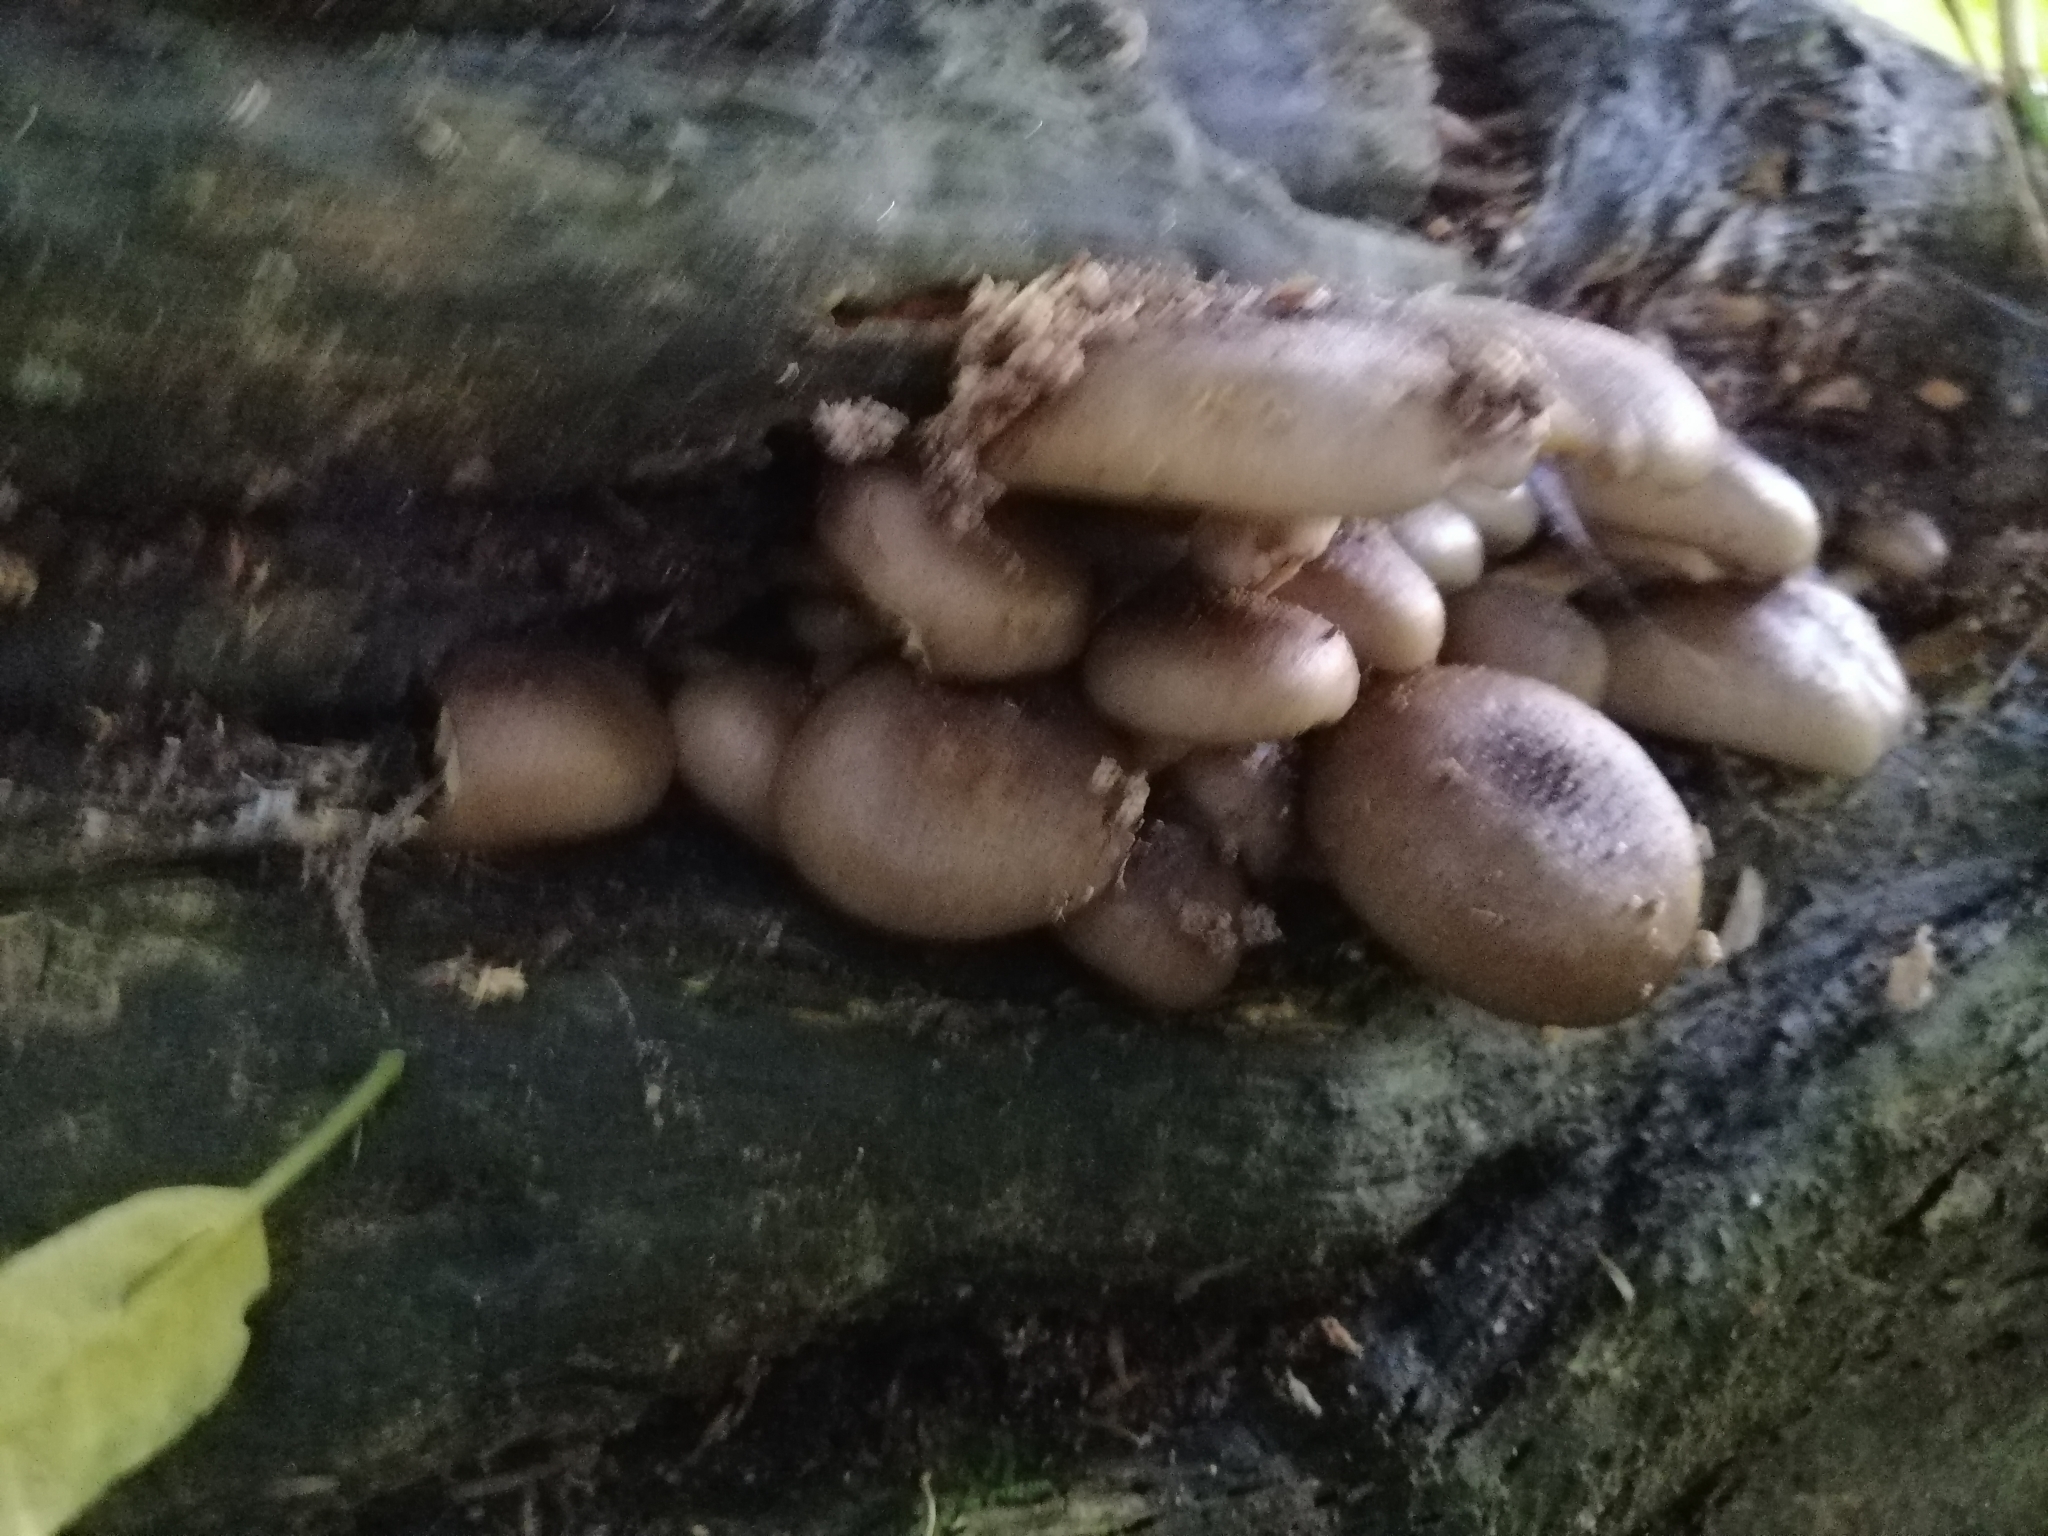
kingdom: Fungi
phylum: Basidiomycota
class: Agaricomycetes
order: Agaricales
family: Physalacriaceae
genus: Armillaria
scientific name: Armillaria novae-zelandiae
